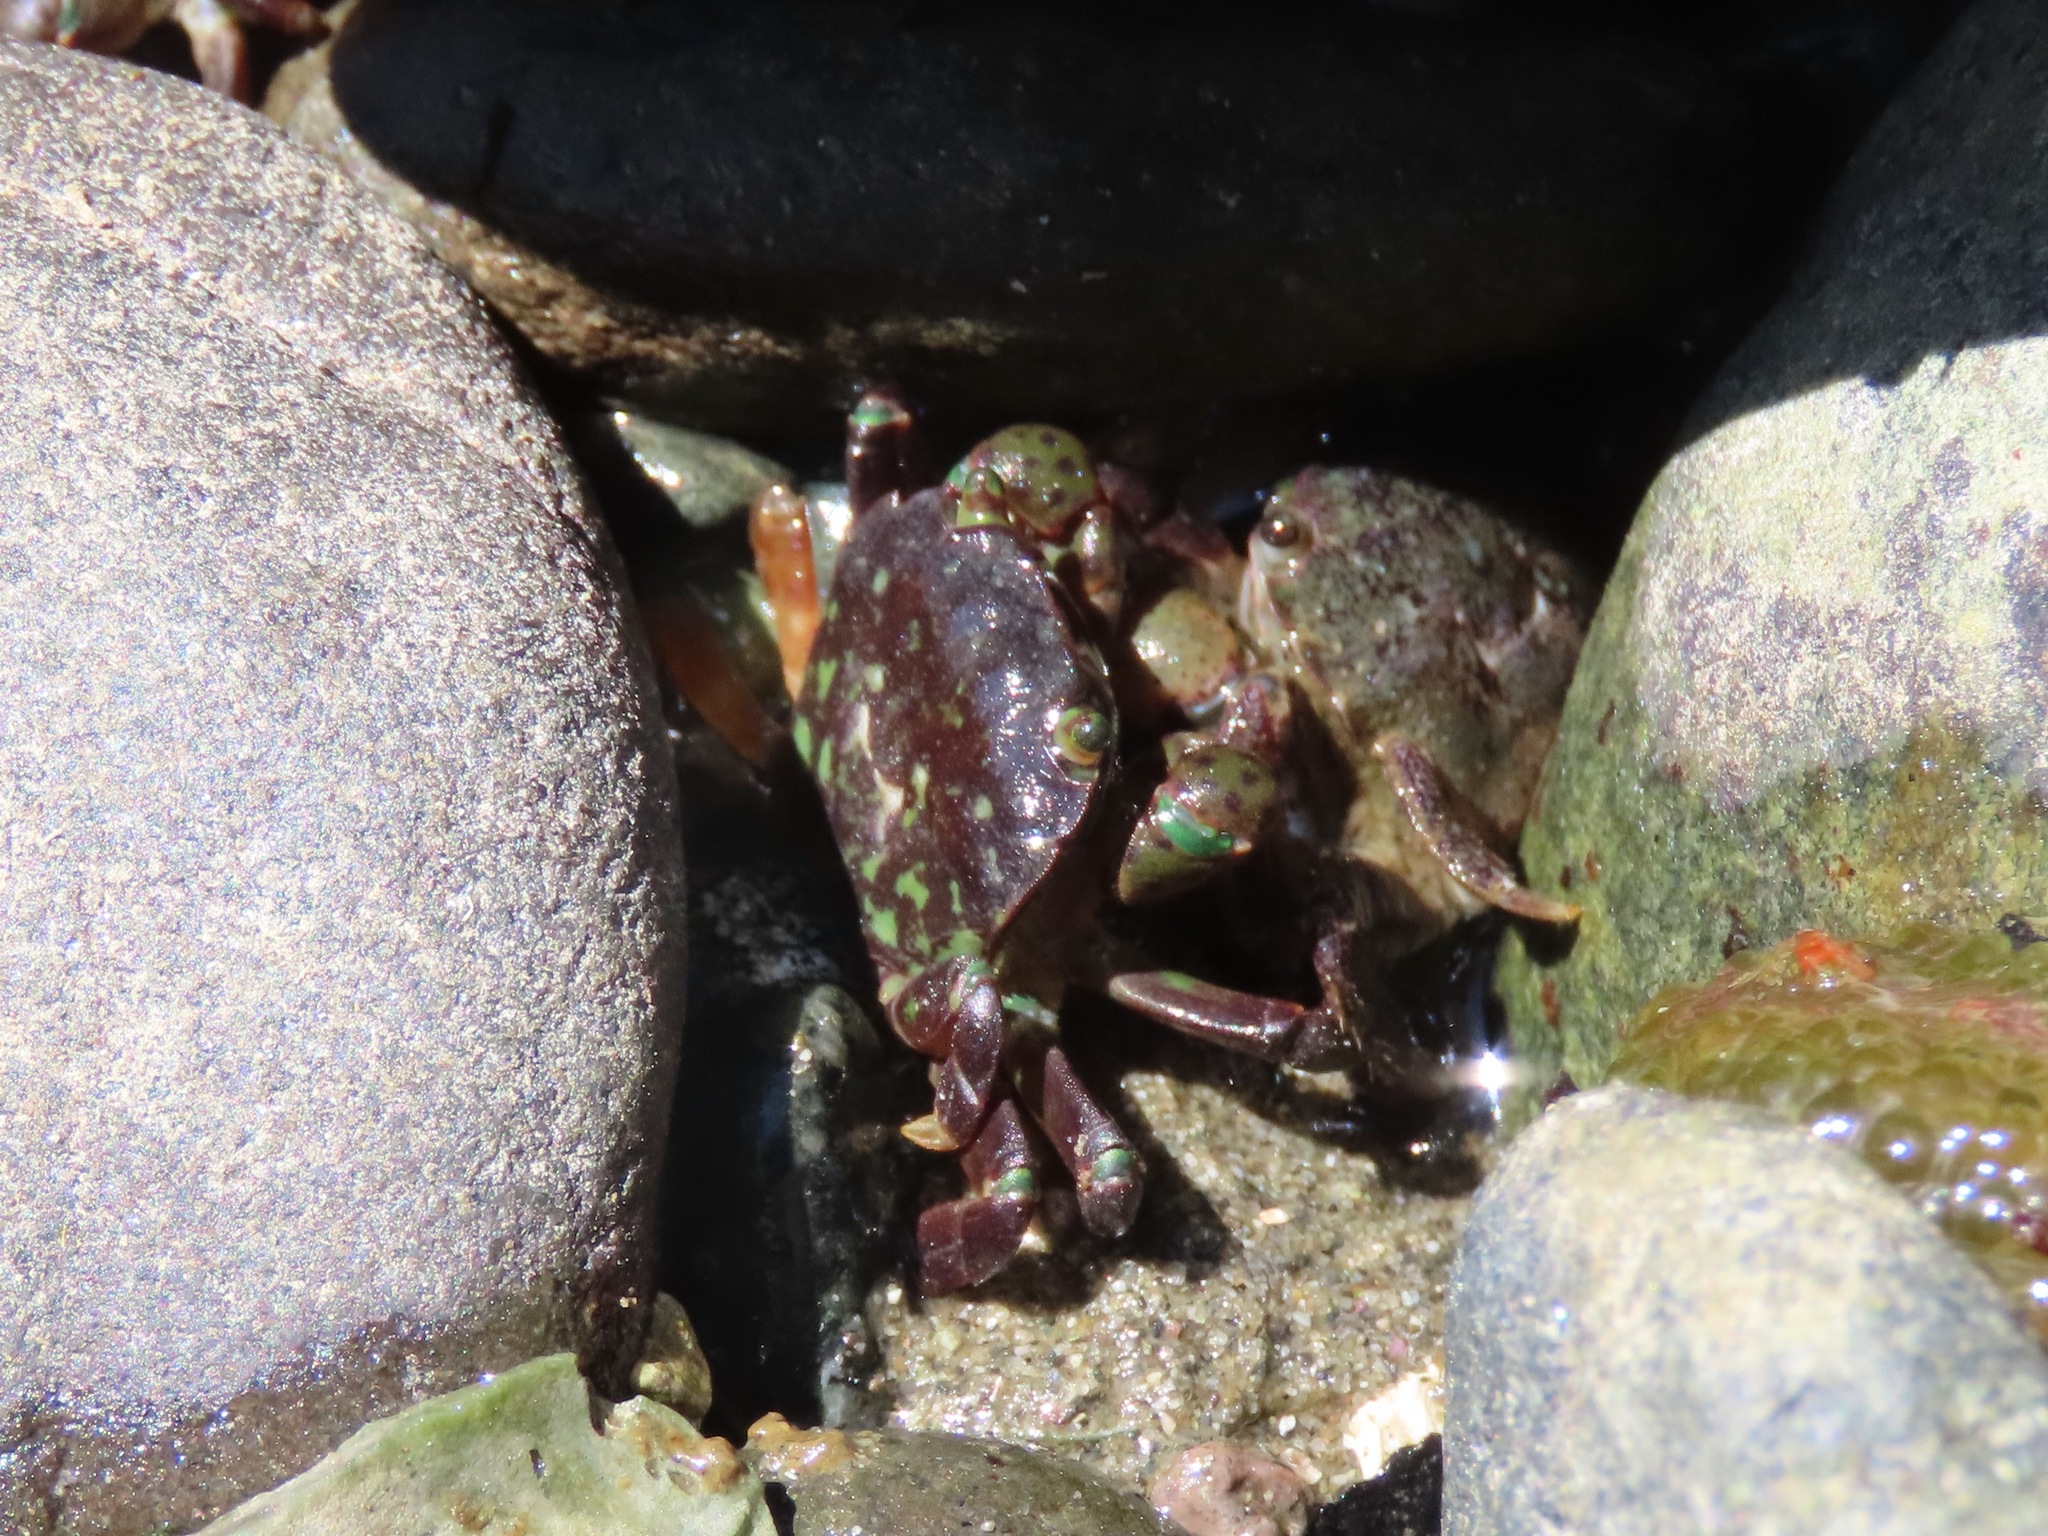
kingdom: Animalia
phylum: Arthropoda
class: Malacostraca
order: Decapoda
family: Varunidae
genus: Hemigrapsus
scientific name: Hemigrapsus nudus
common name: Purple shore crab
